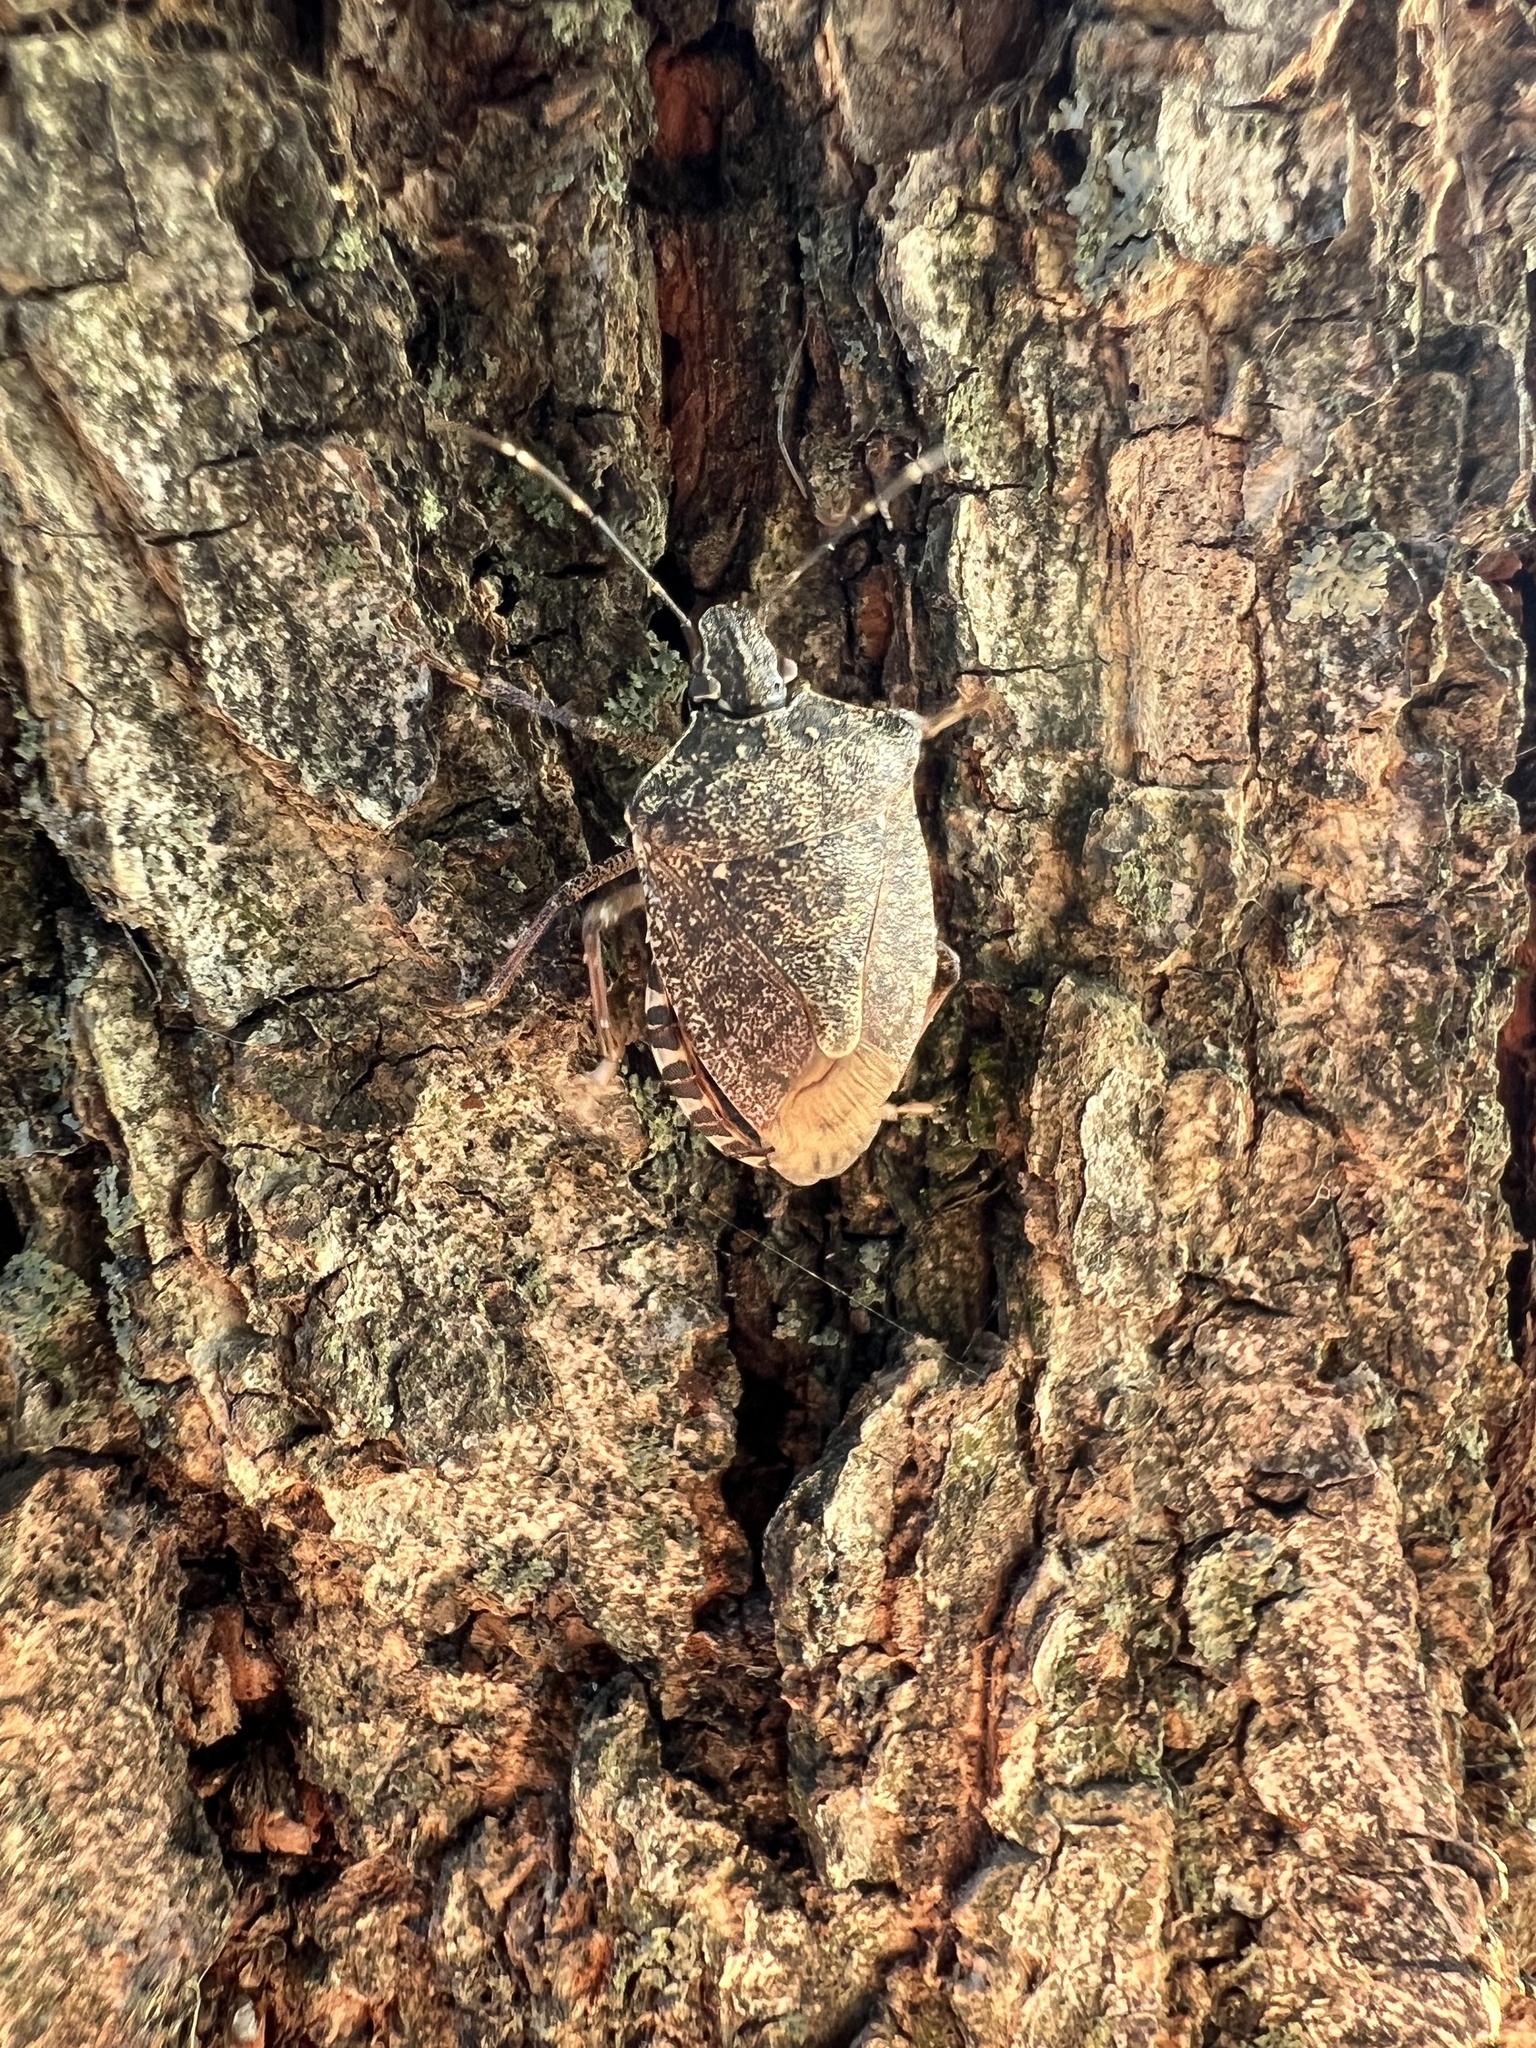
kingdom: Animalia
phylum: Arthropoda
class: Insecta
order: Hemiptera
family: Pentatomidae
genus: Halyomorpha
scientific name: Halyomorpha halys
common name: Brown marmorated stink bug
